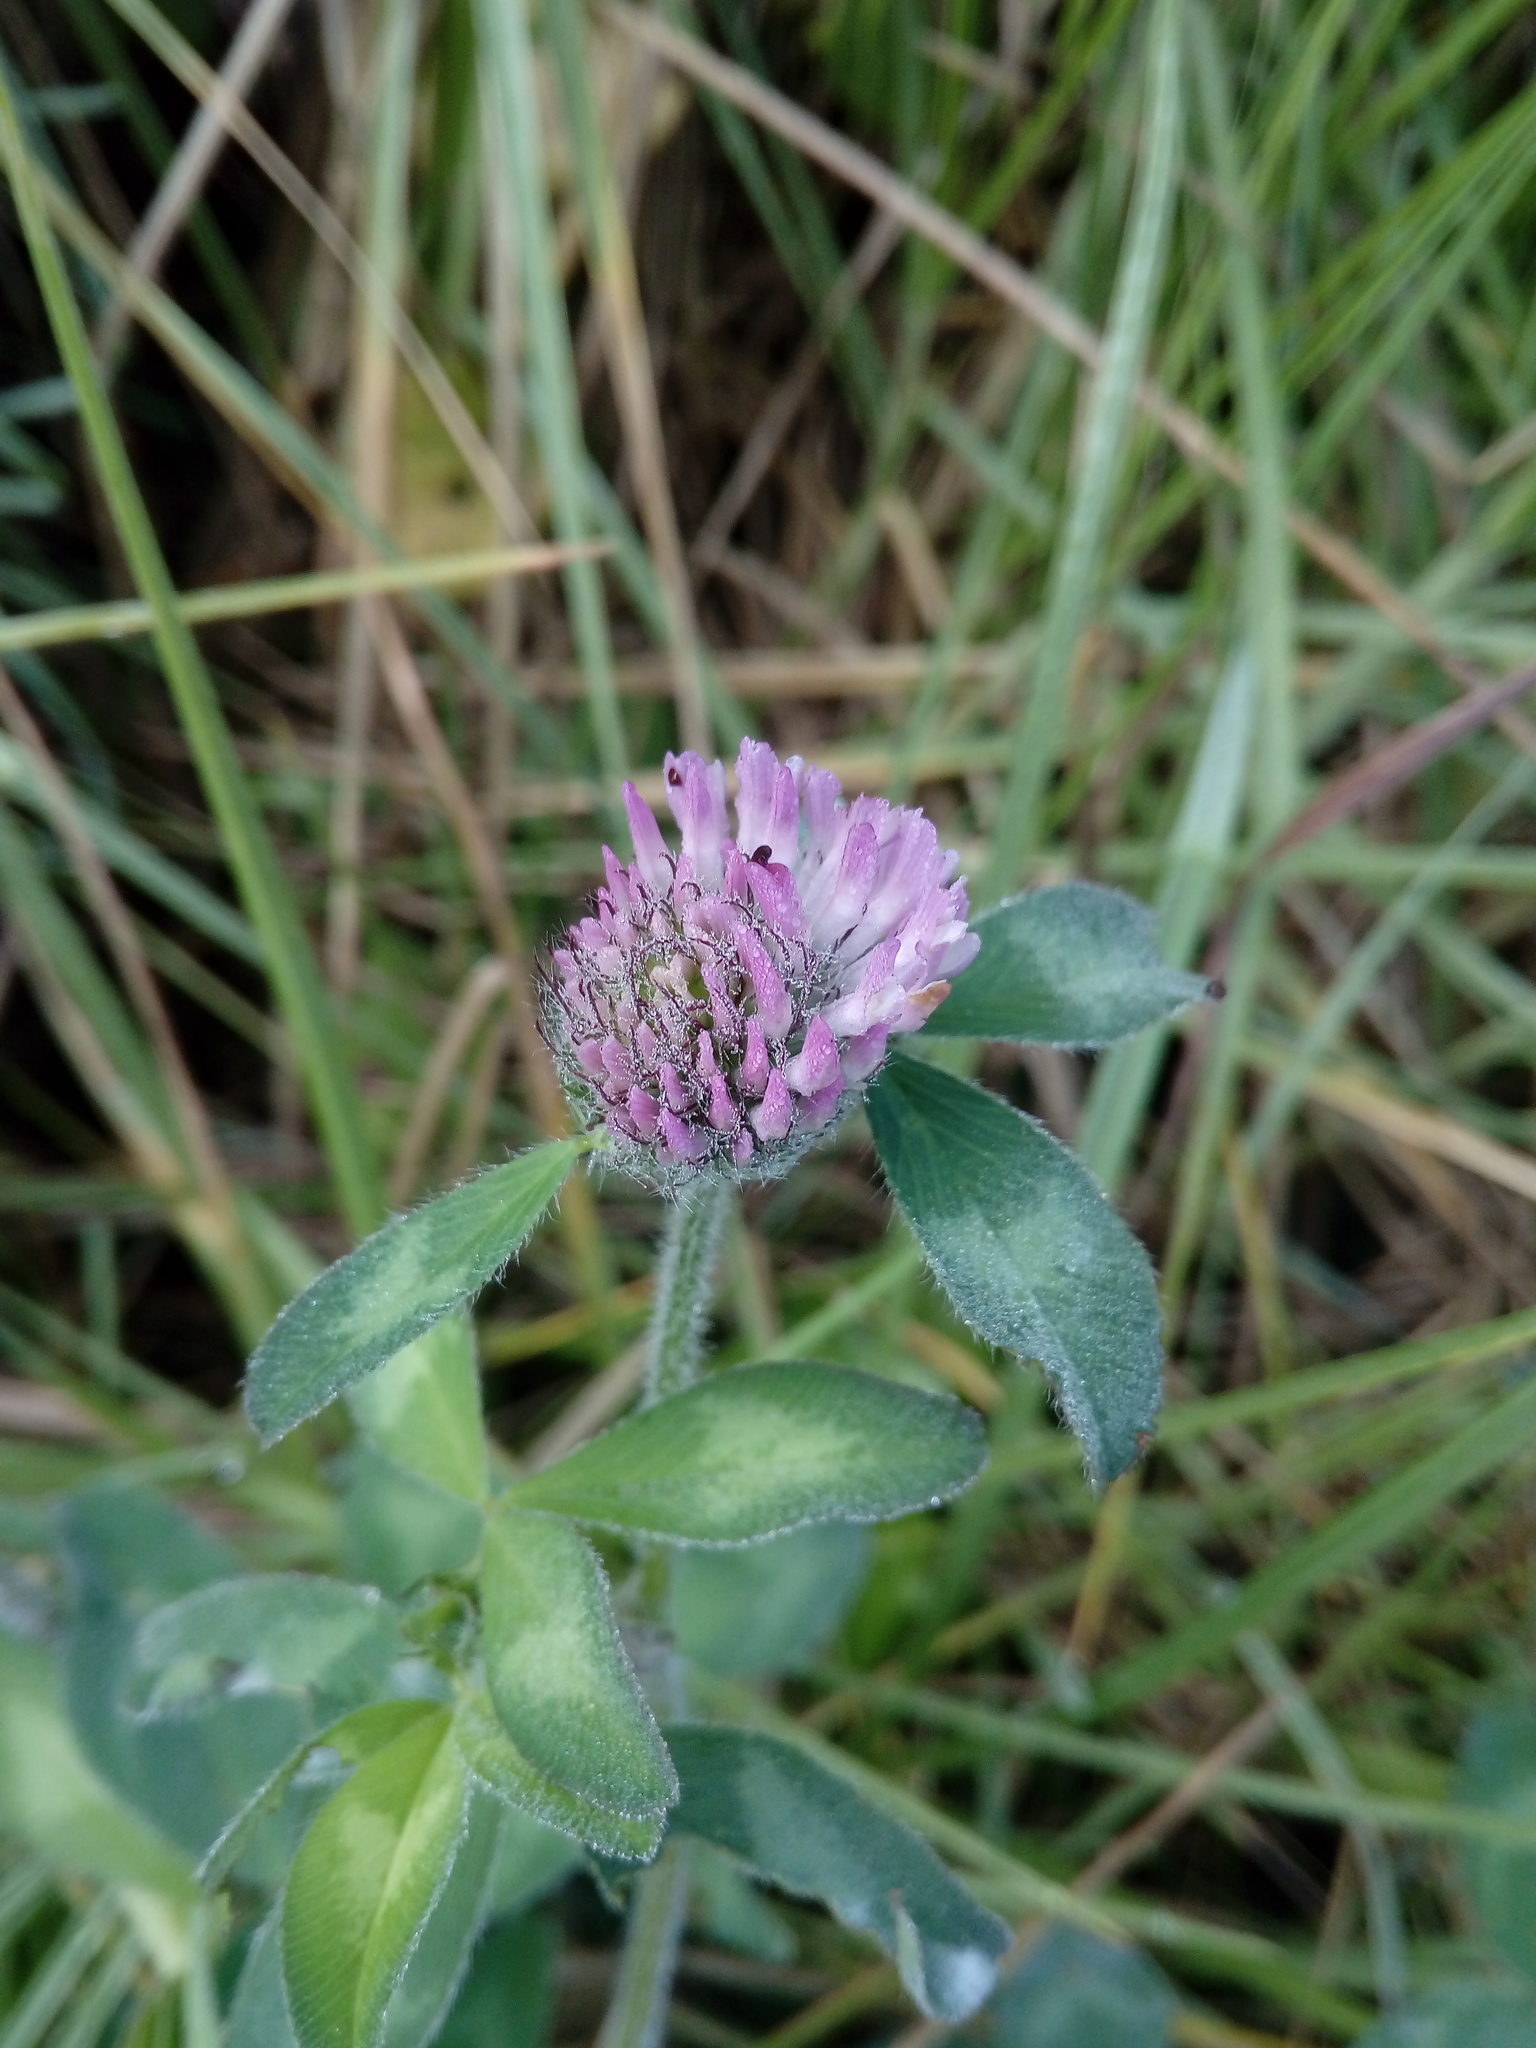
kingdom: Plantae
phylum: Tracheophyta
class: Magnoliopsida
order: Fabales
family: Fabaceae
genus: Trifolium
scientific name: Trifolium pratense
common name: Red clover
